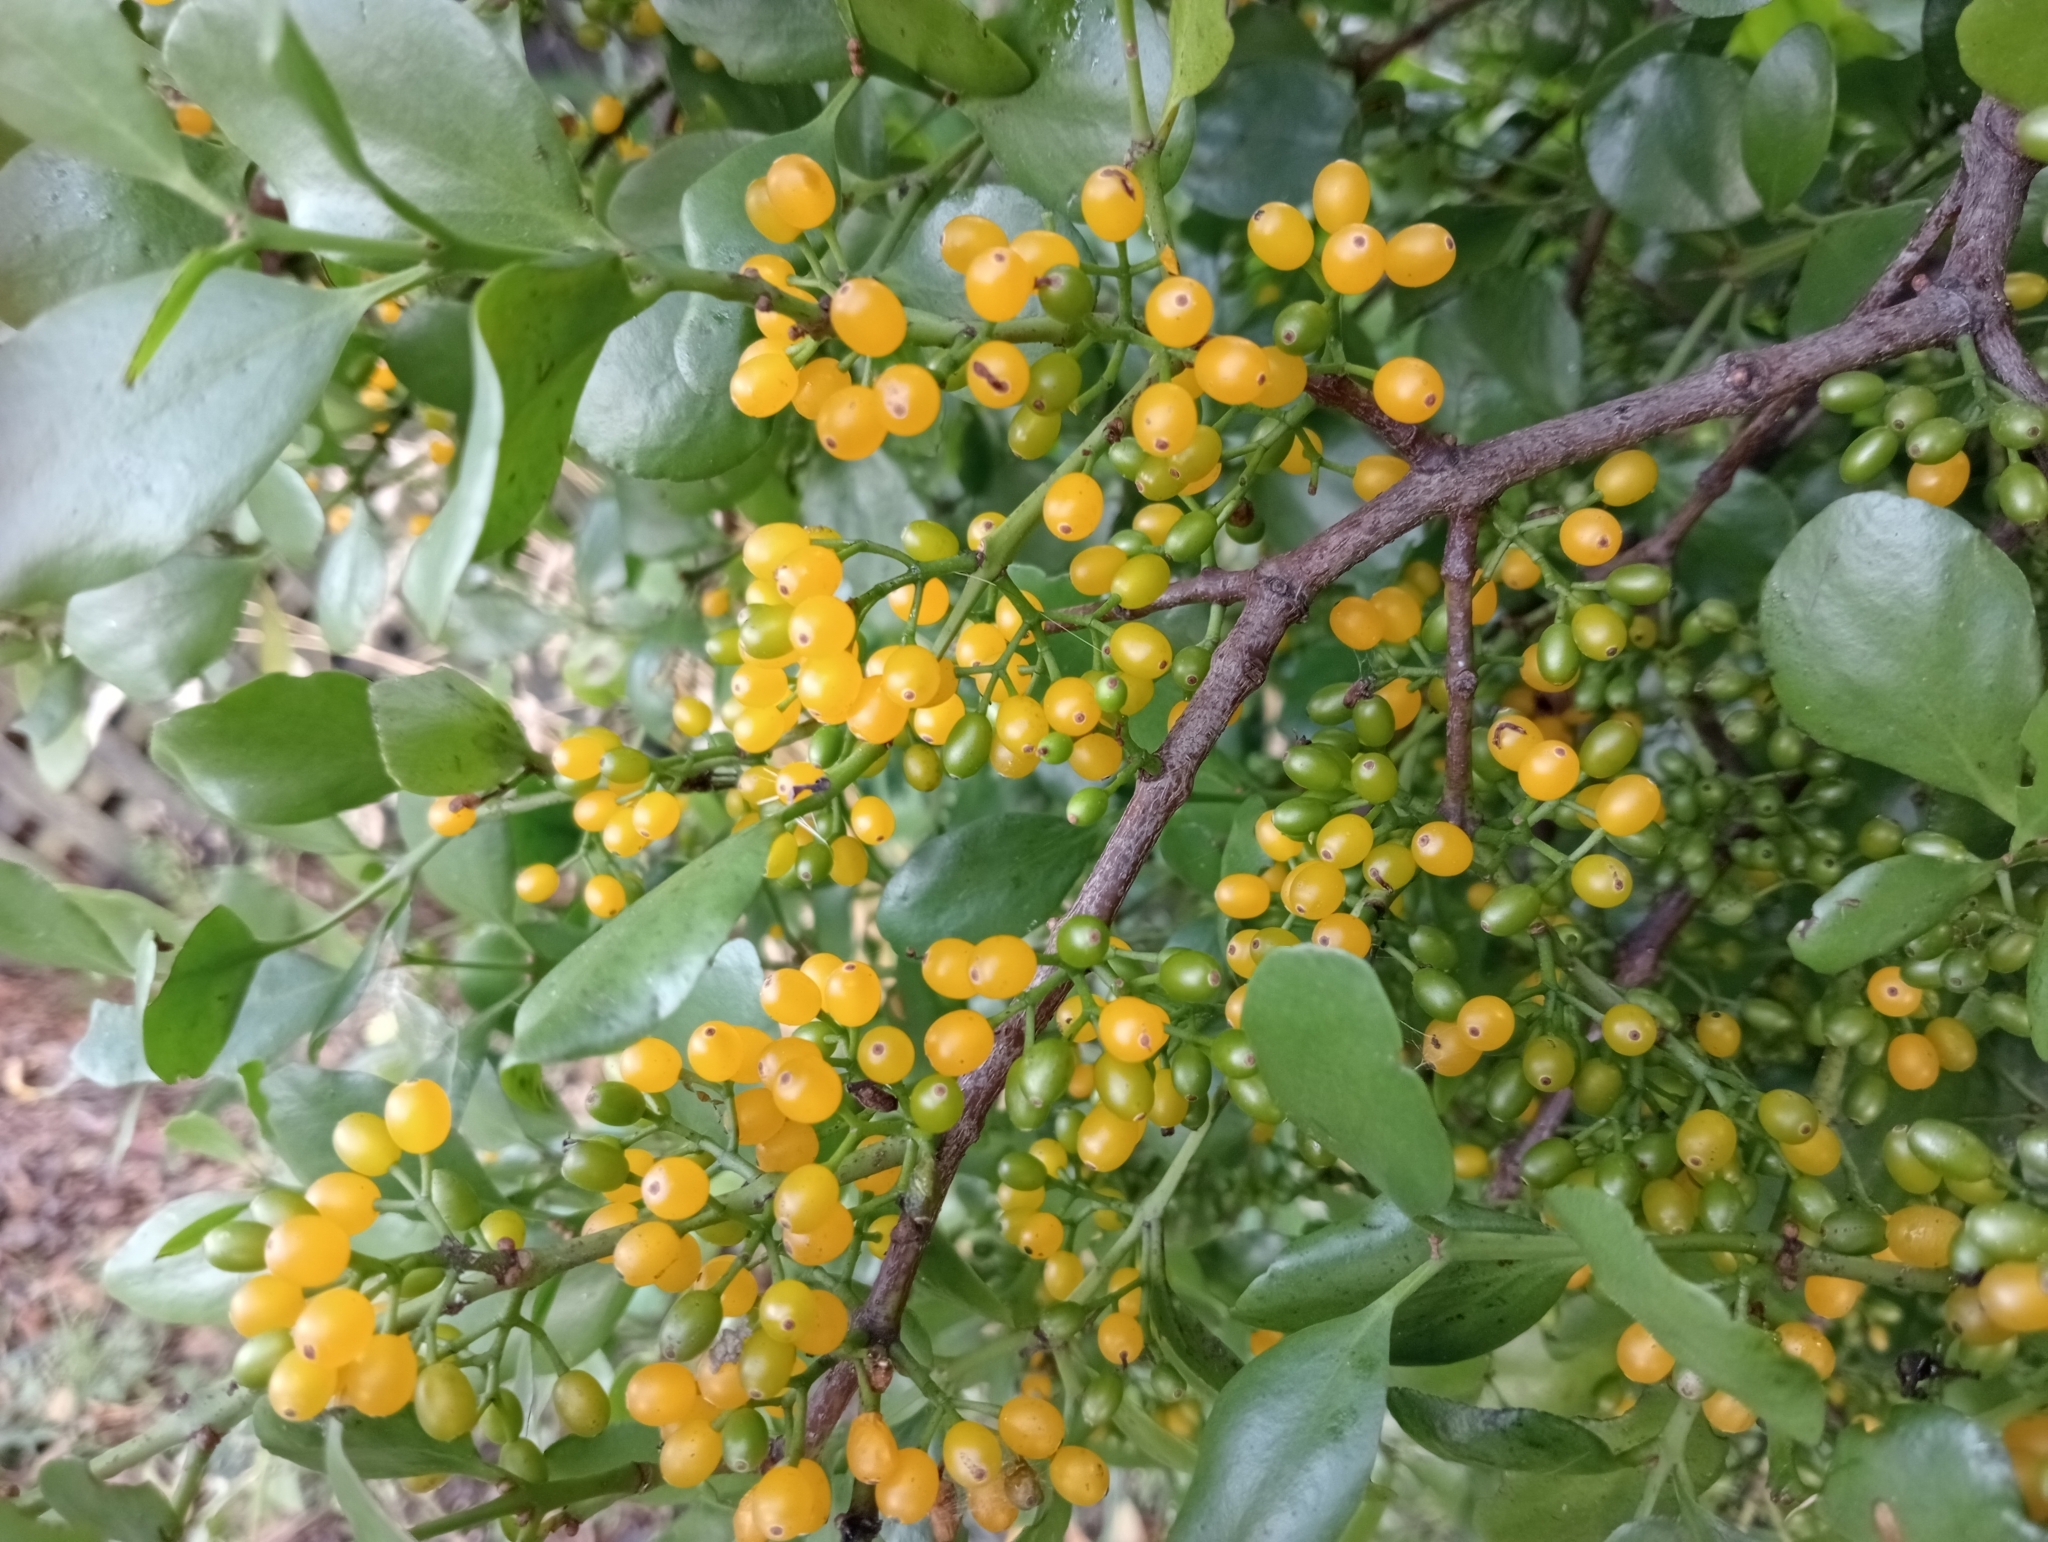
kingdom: Plantae
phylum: Tracheophyta
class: Magnoliopsida
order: Santalales
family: Loranthaceae
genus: Ileostylus
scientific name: Ileostylus micranthus
